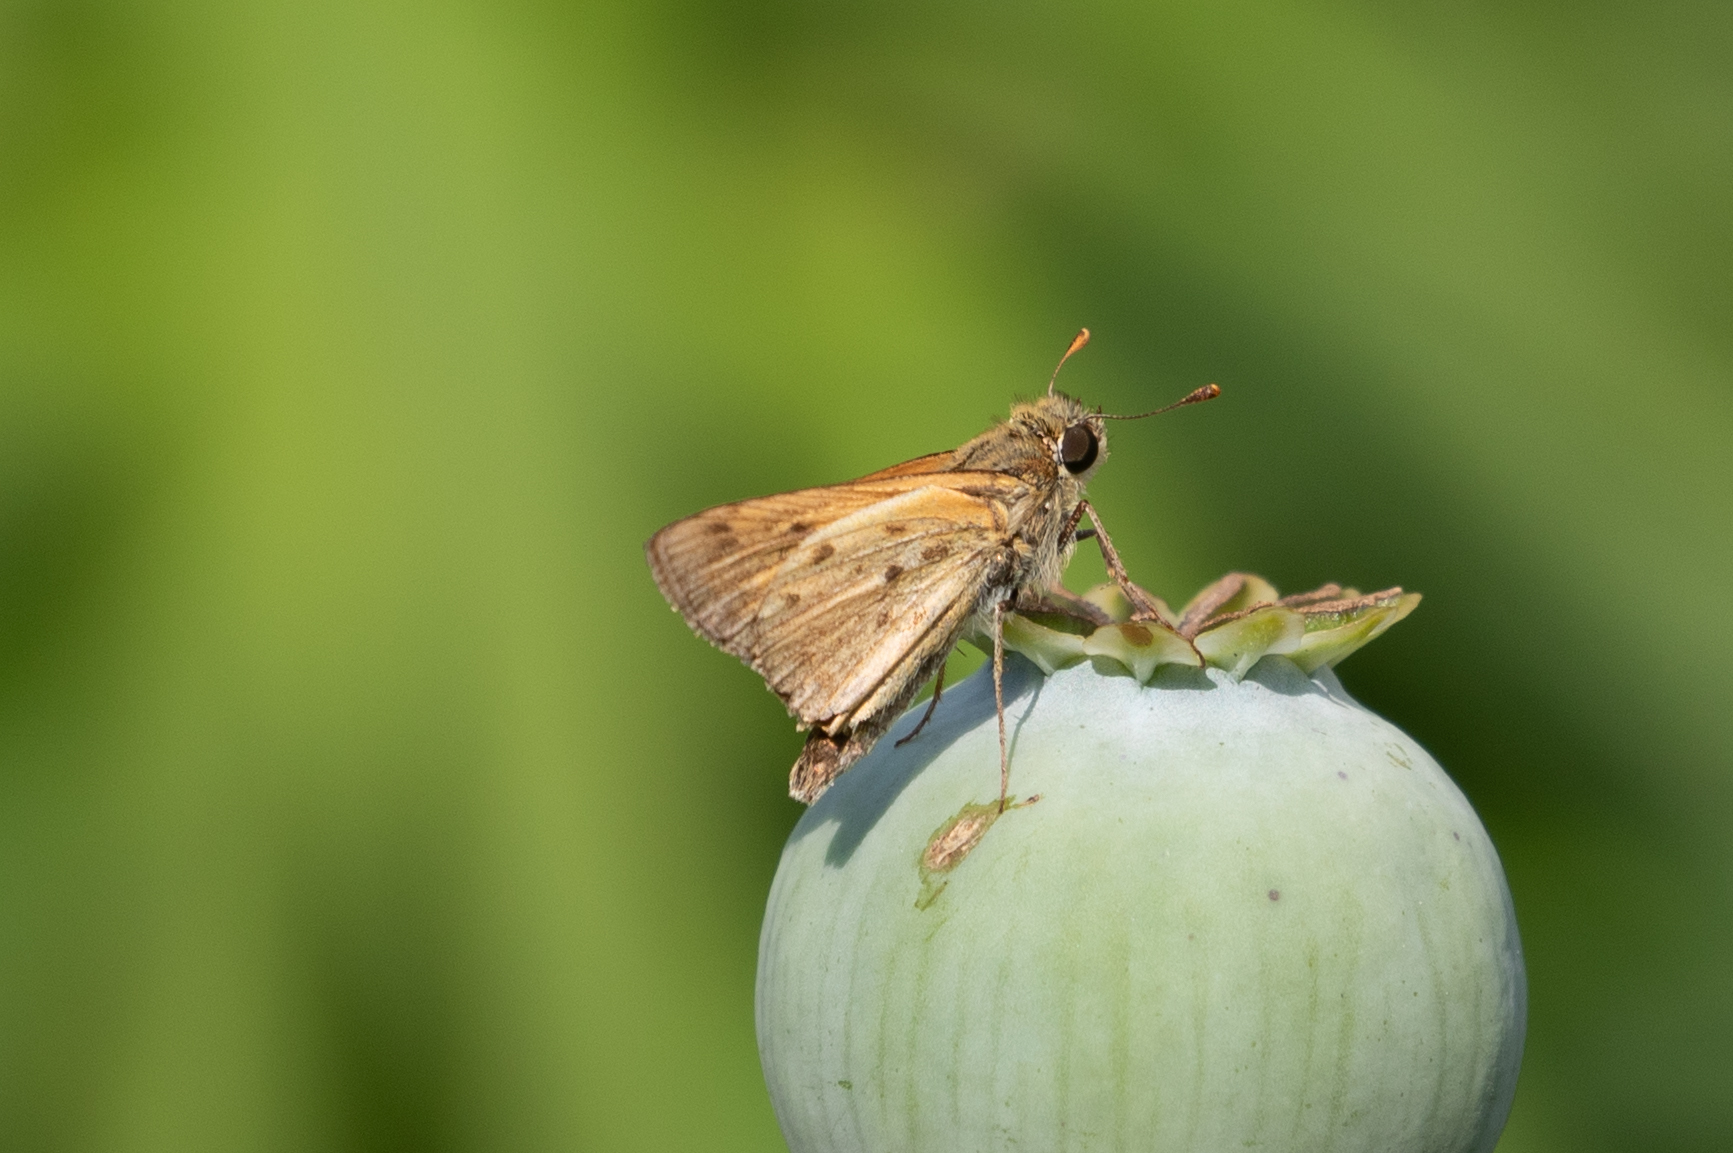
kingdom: Animalia
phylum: Arthropoda
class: Insecta
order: Lepidoptera
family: Hesperiidae
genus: Hylephila
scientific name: Hylephila phyleus
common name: Fiery skipper
